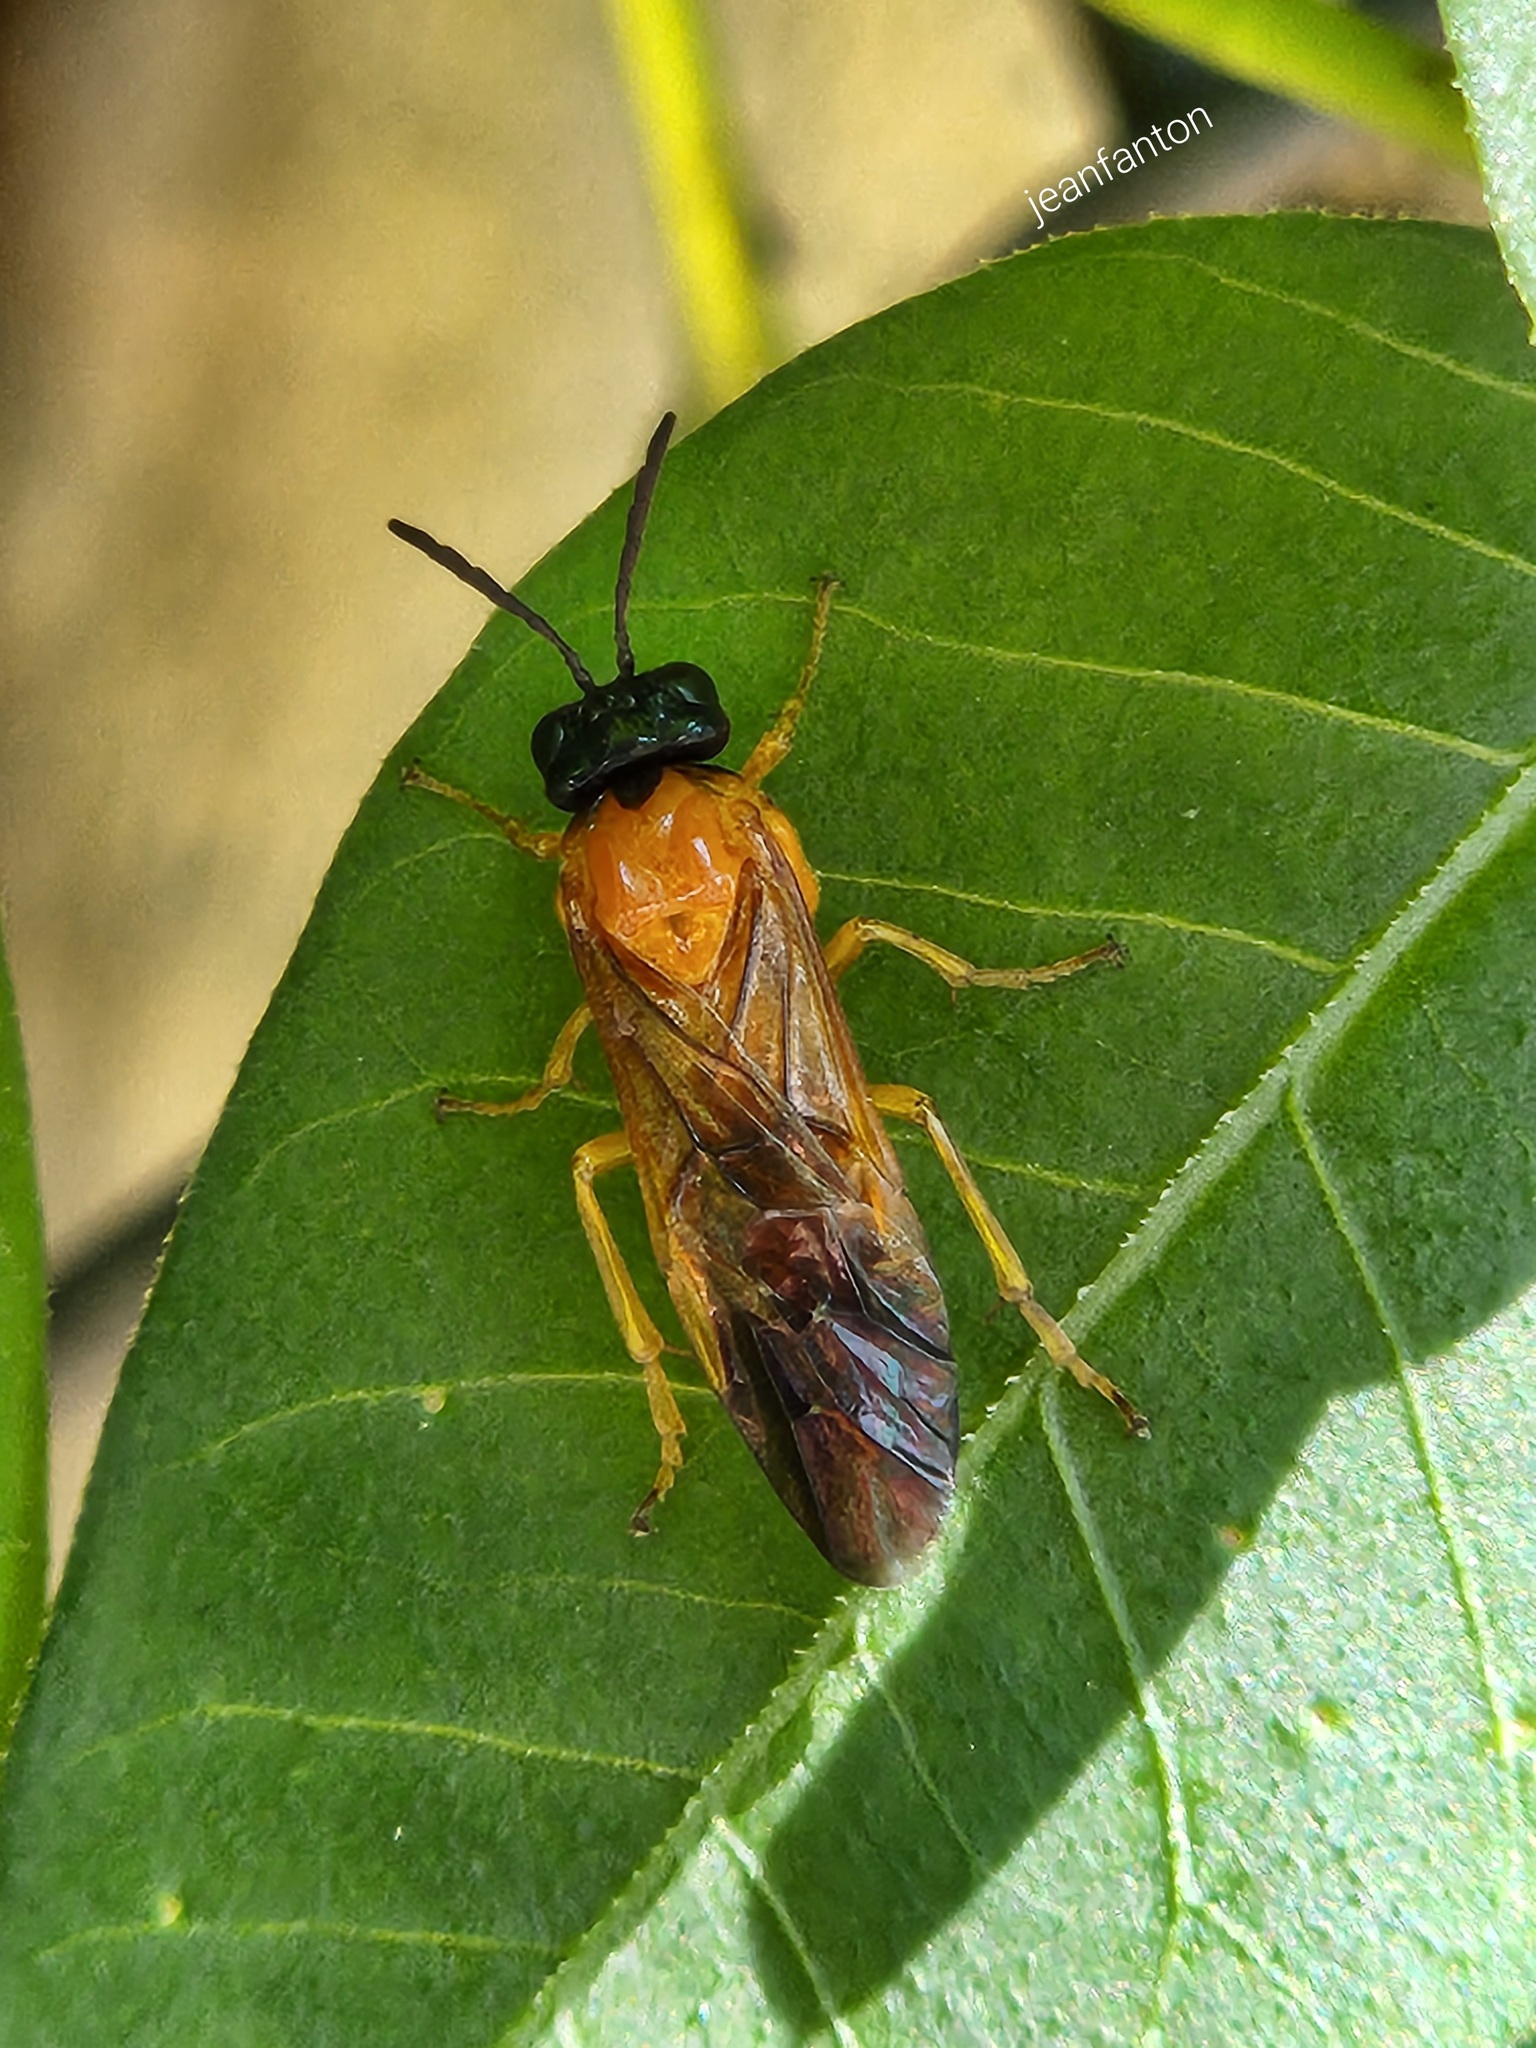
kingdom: Animalia
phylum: Arthropoda
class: Insecta
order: Hymenoptera
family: Pergidae
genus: Haplostegus
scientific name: Haplostegus
